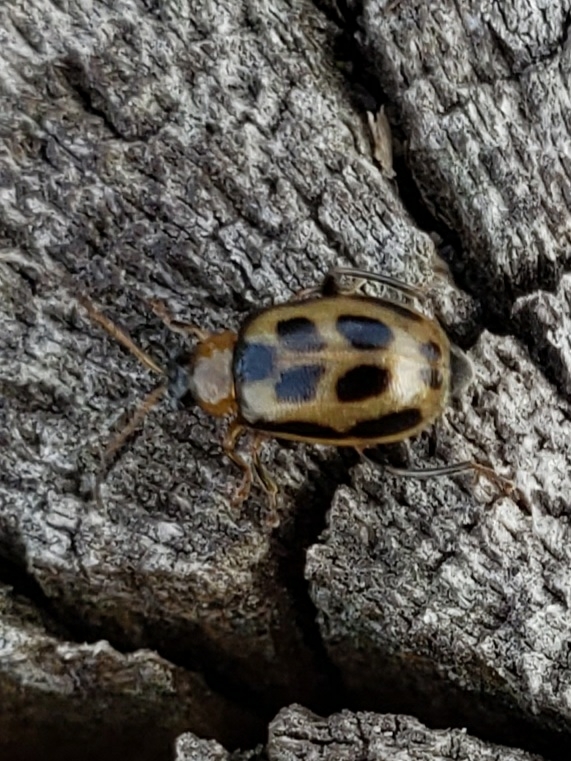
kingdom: Animalia
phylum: Arthropoda
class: Insecta
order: Coleoptera
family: Chrysomelidae
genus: Cerotoma
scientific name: Cerotoma trifurcata
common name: Bean leaf beetle
